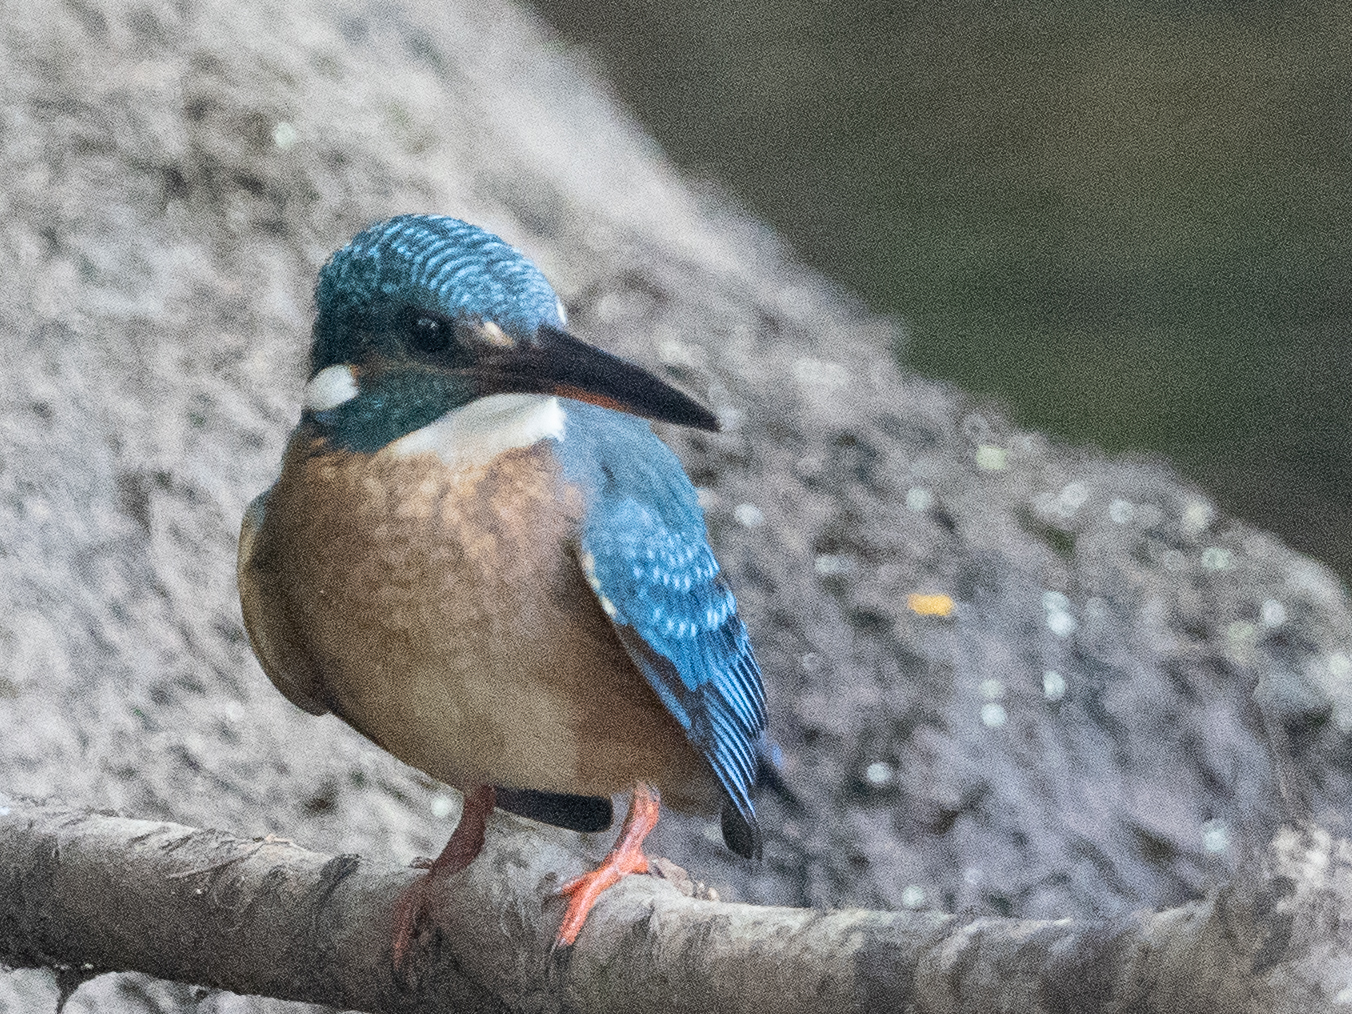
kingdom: Animalia
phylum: Chordata
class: Aves
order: Coraciiformes
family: Alcedinidae
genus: Alcedo
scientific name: Alcedo atthis
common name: Common kingfisher
